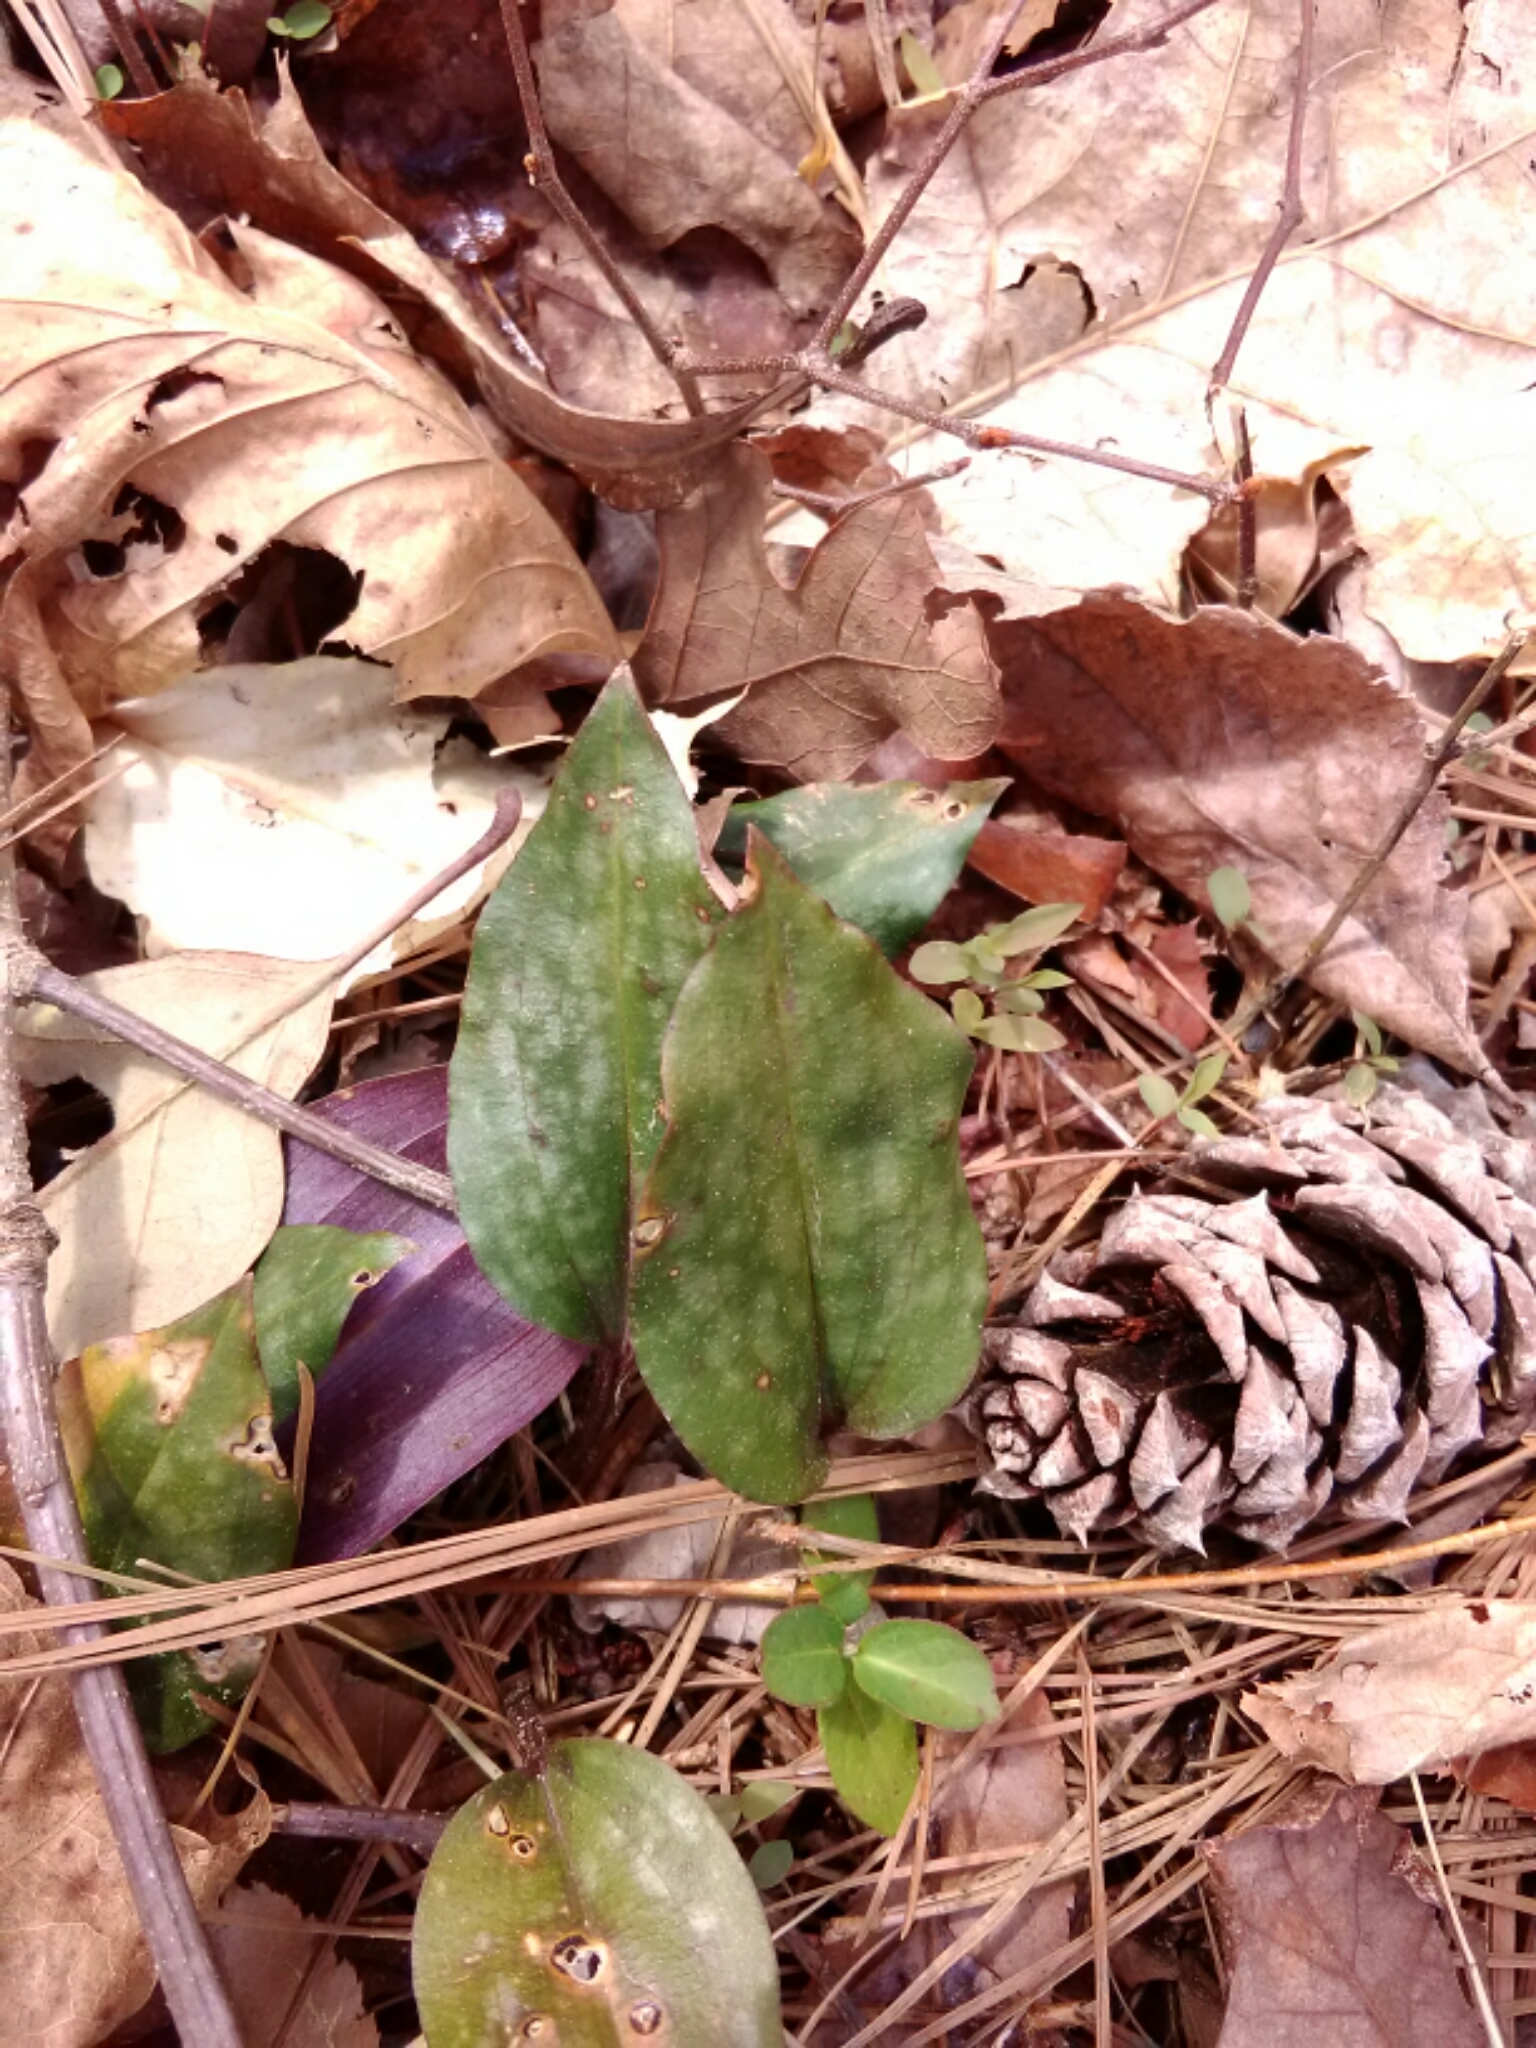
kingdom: Plantae
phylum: Tracheophyta
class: Liliopsida
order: Asparagales
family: Orchidaceae
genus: Tipularia
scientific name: Tipularia discolor
